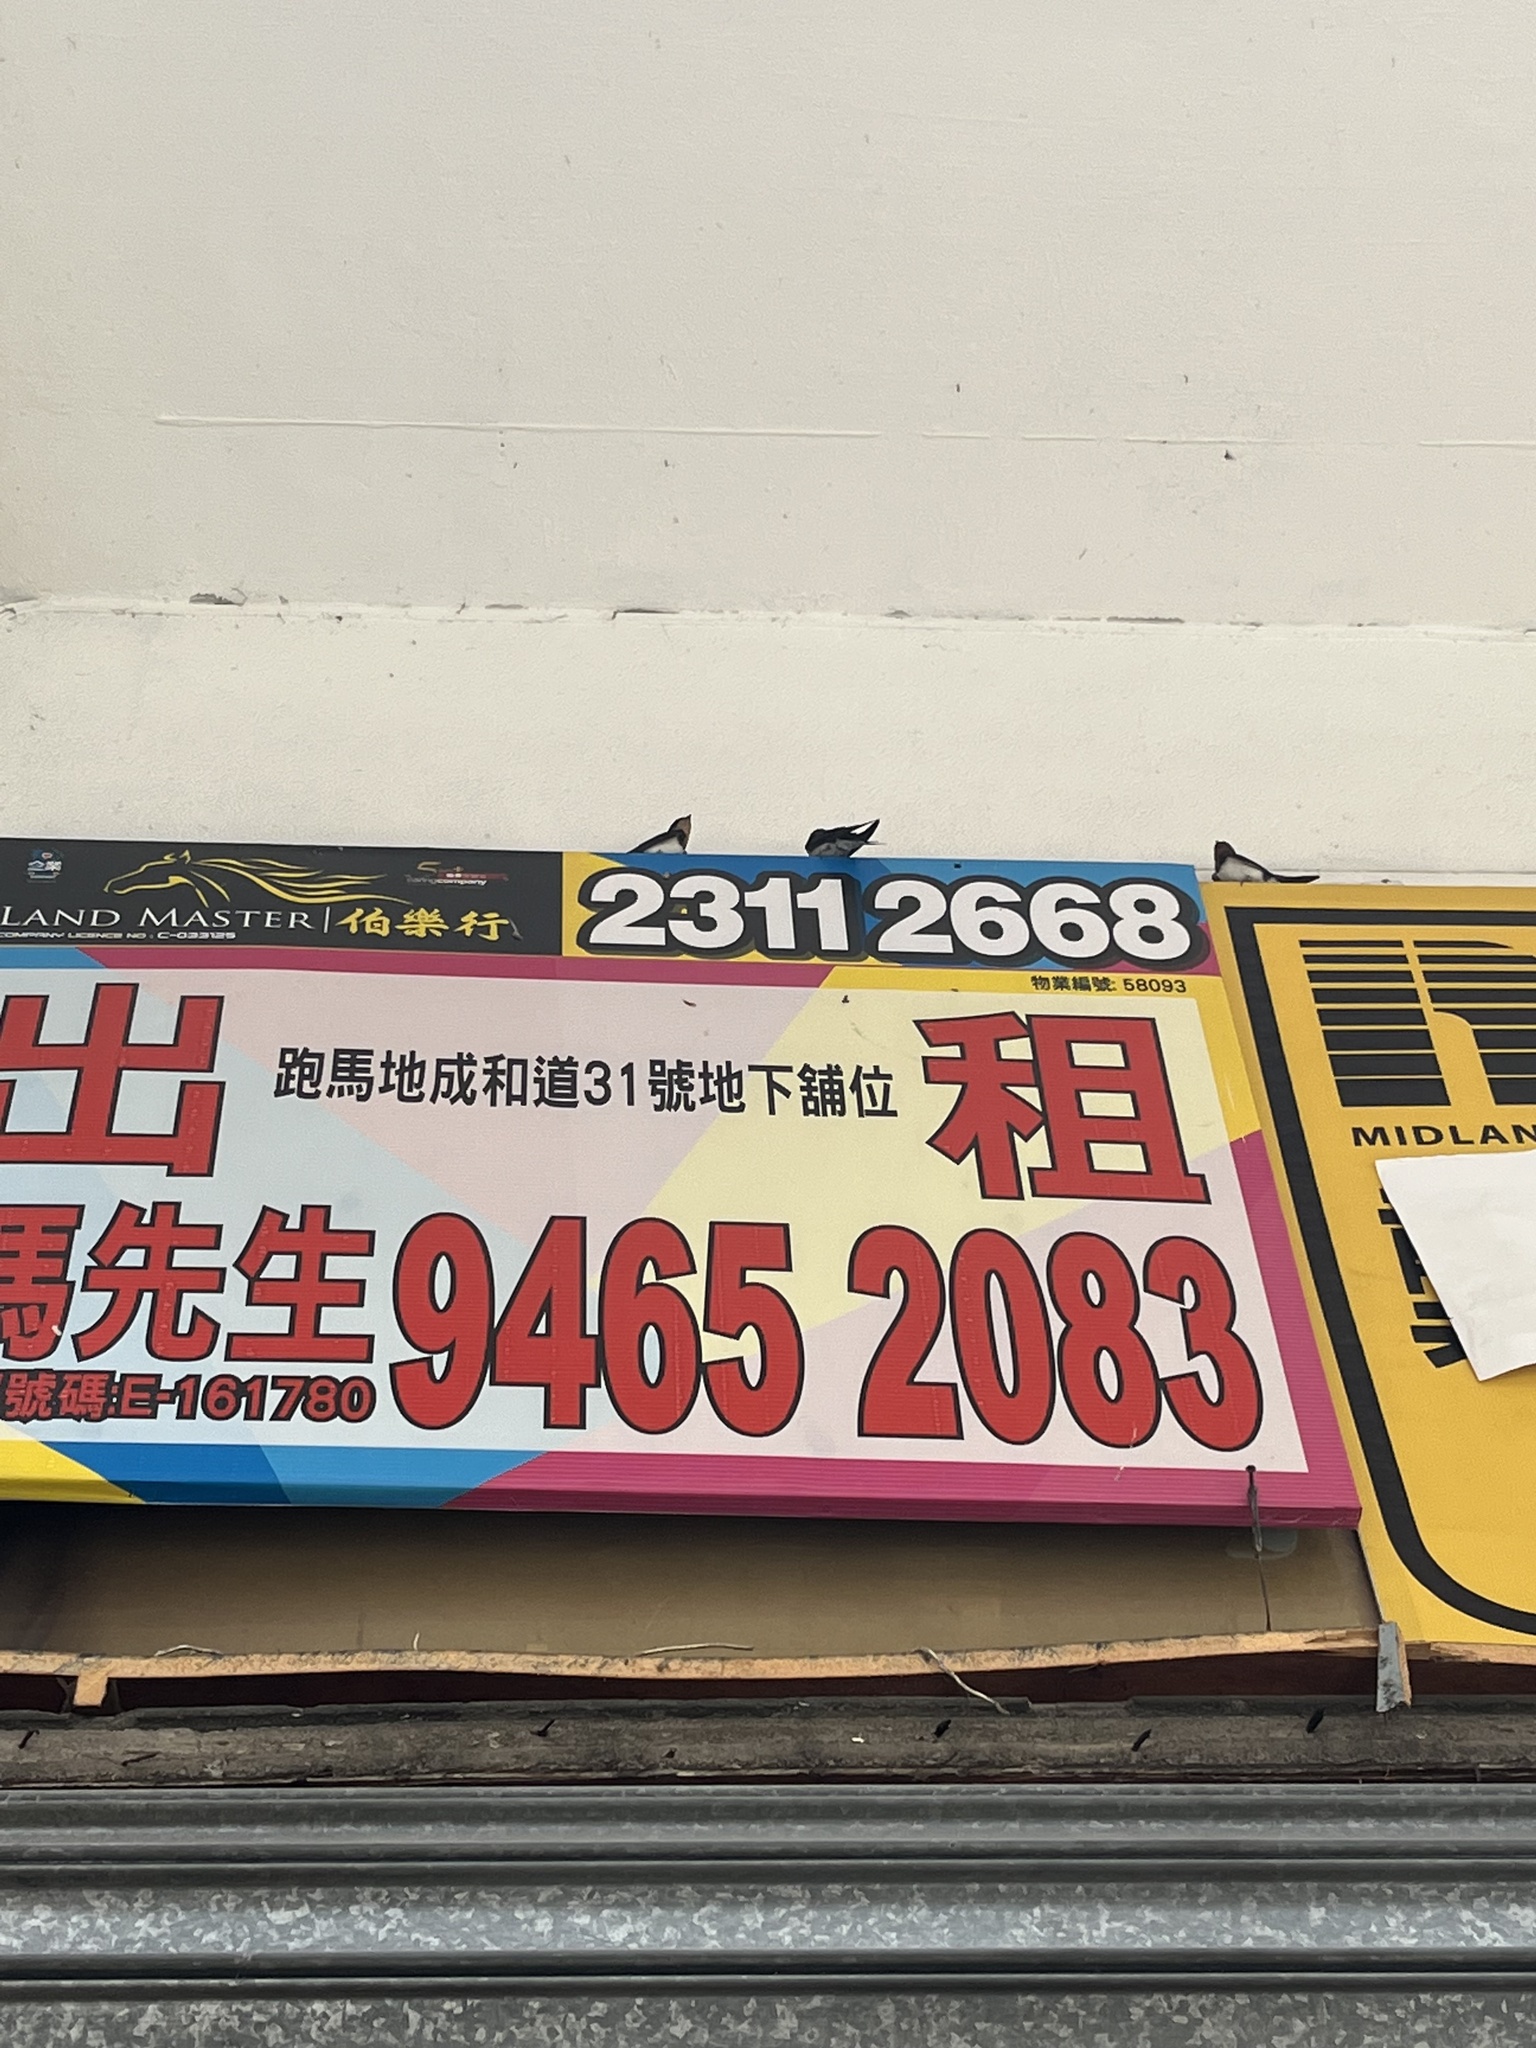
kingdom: Animalia
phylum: Chordata
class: Aves
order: Passeriformes
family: Hirundinidae
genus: Hirundo
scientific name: Hirundo rustica
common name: Barn swallow
